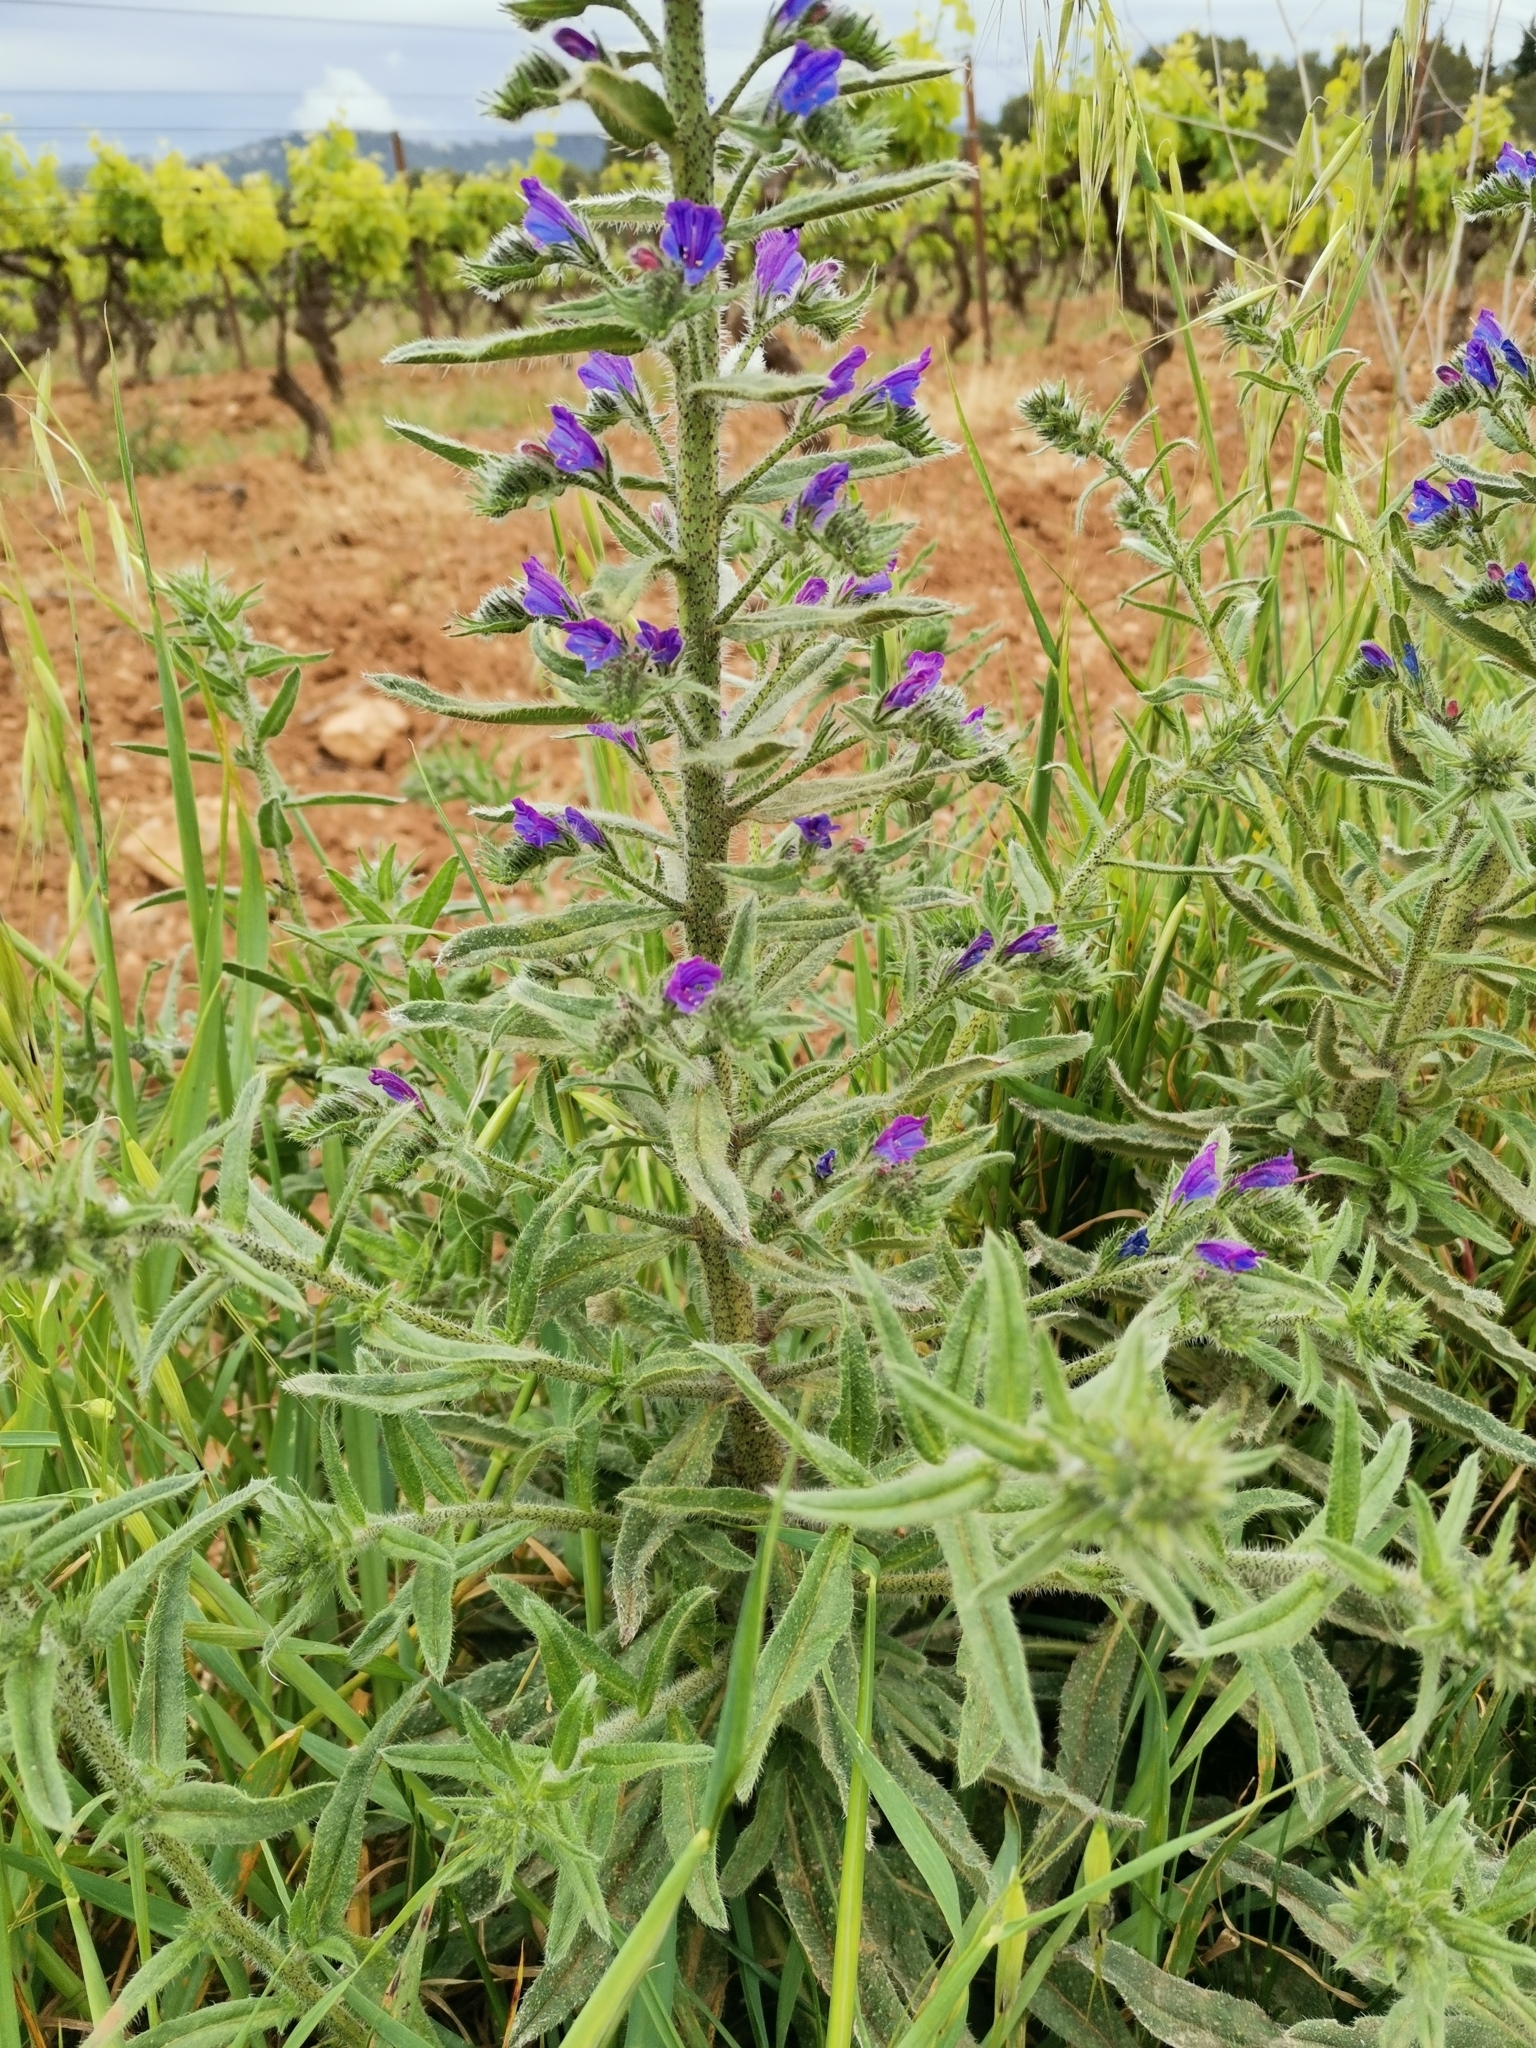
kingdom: Plantae
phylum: Tracheophyta
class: Magnoliopsida
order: Boraginales
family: Boraginaceae
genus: Echium
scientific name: Echium vulgare
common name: Common viper's bugloss
